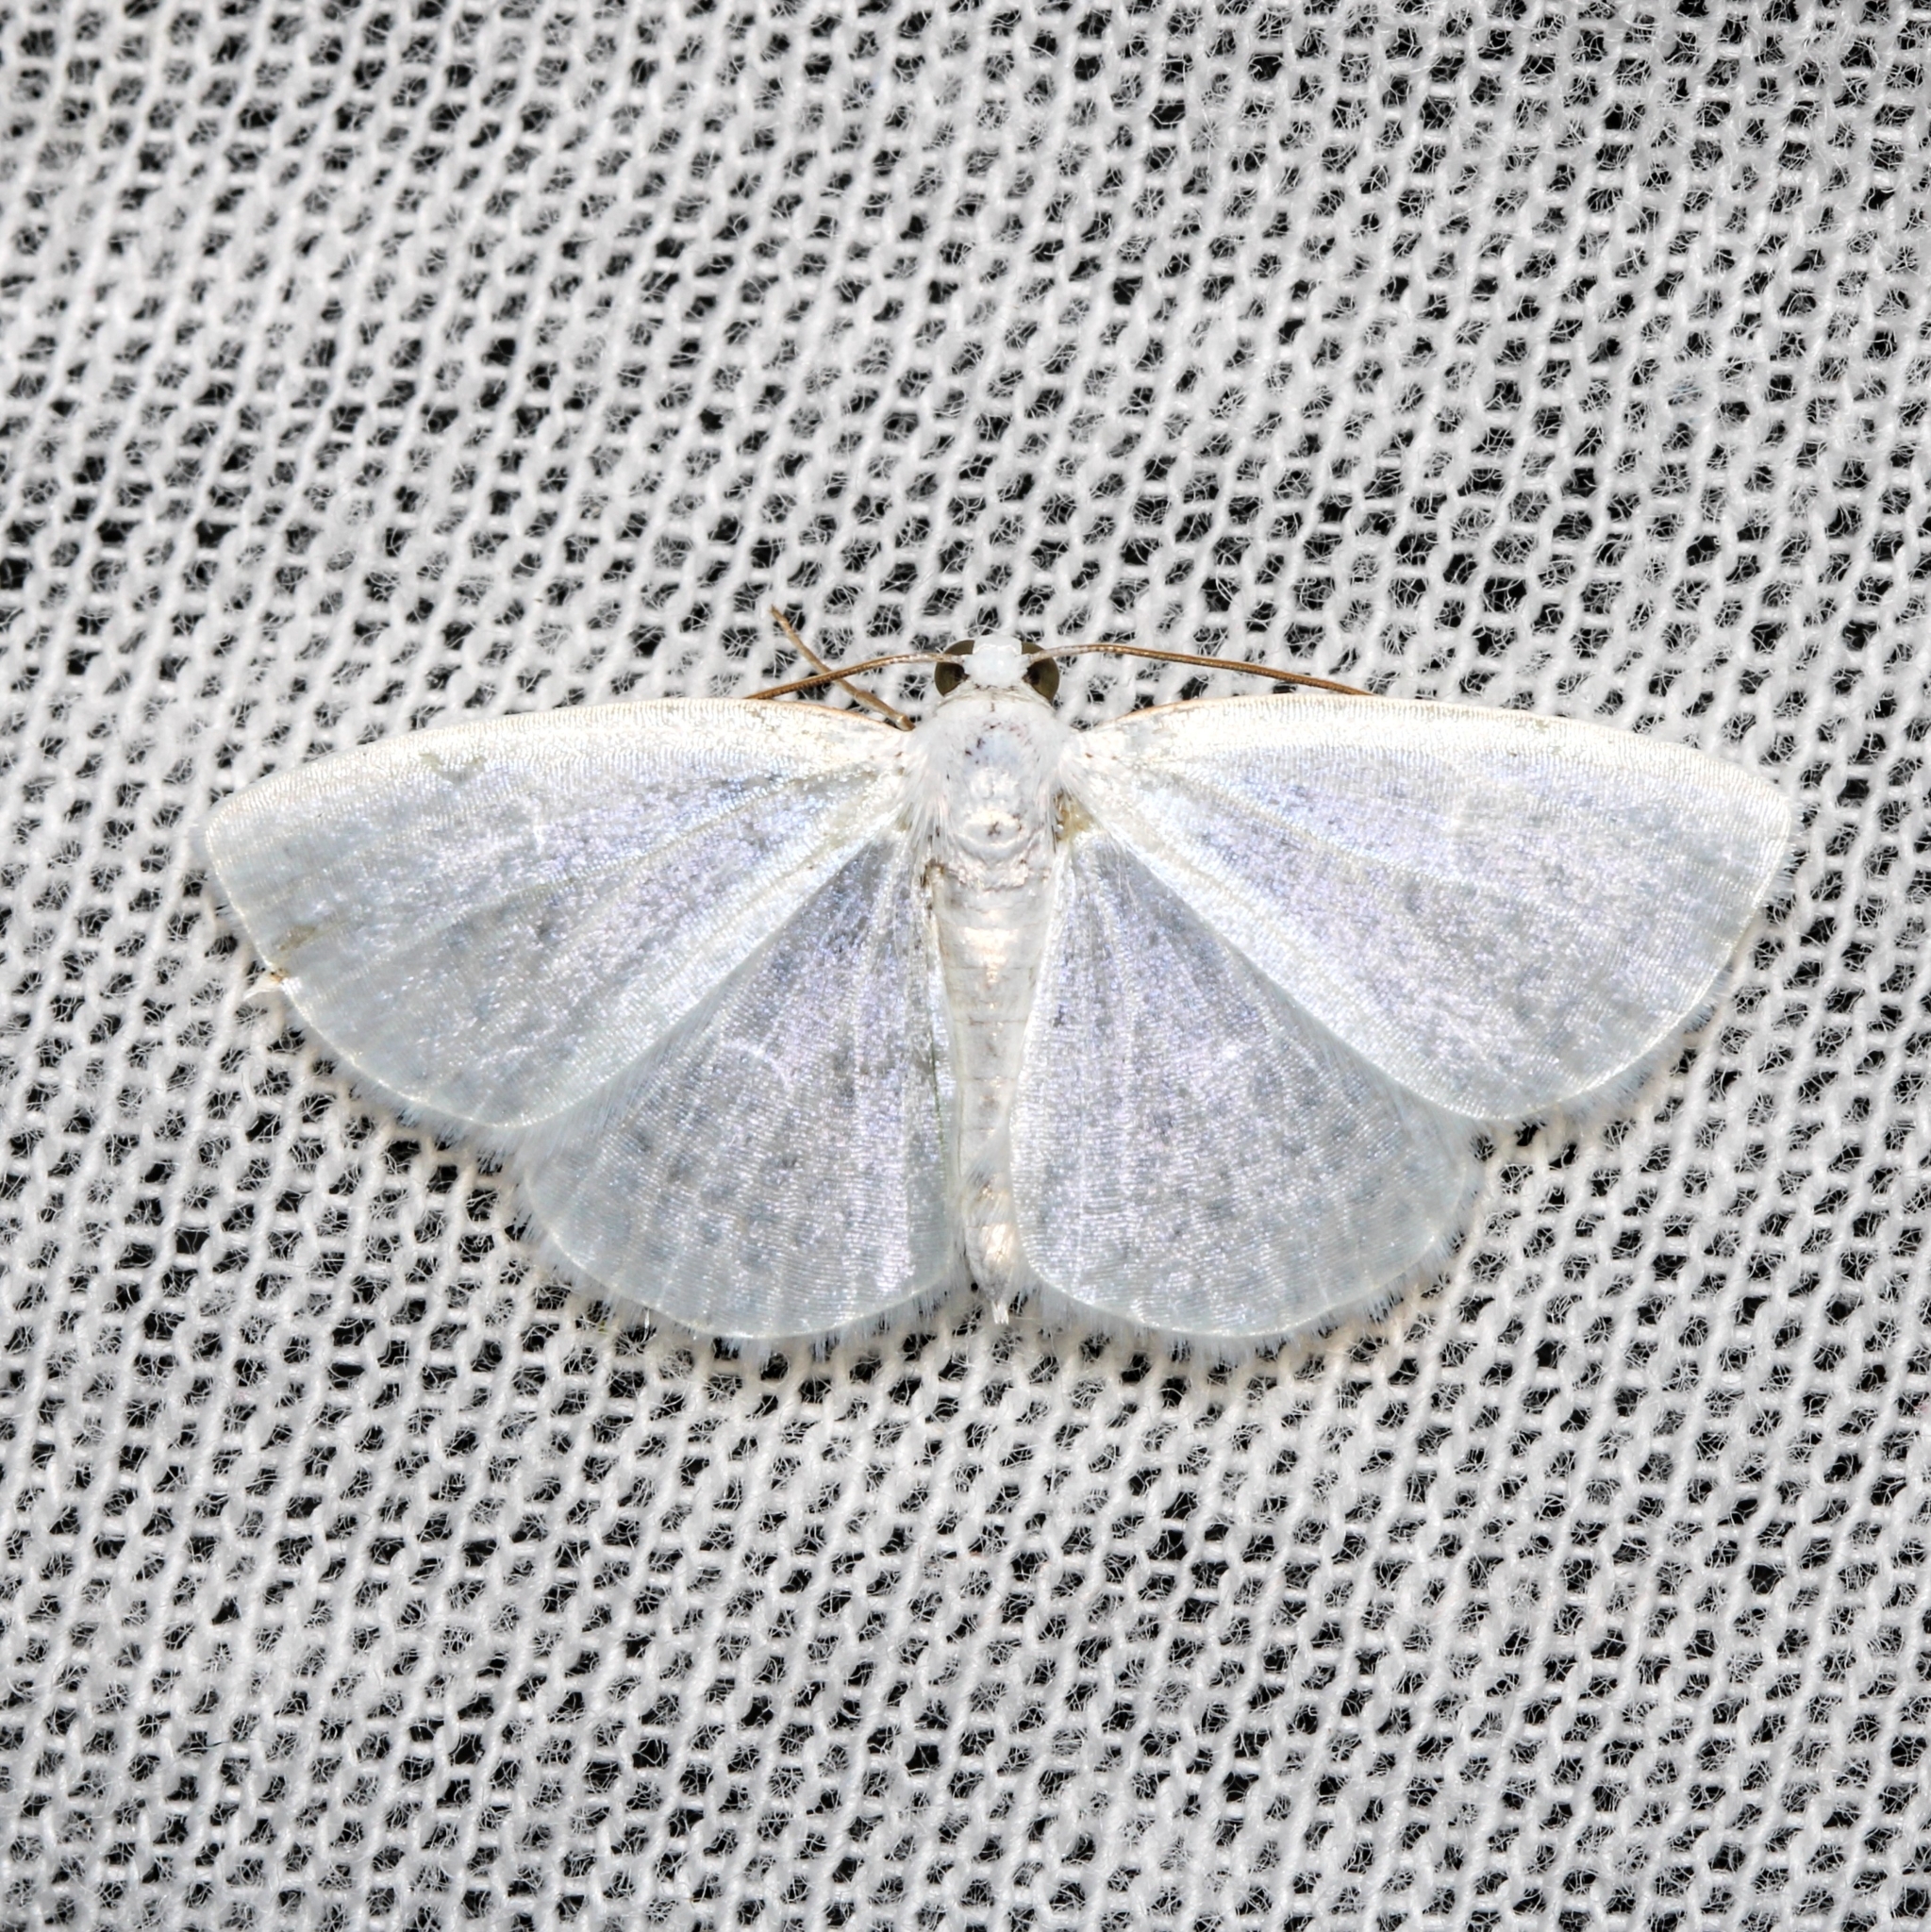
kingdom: Animalia
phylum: Arthropoda
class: Insecta
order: Lepidoptera
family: Geometridae
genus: Lomographa
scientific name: Lomographa vestaliata
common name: White spring moth
